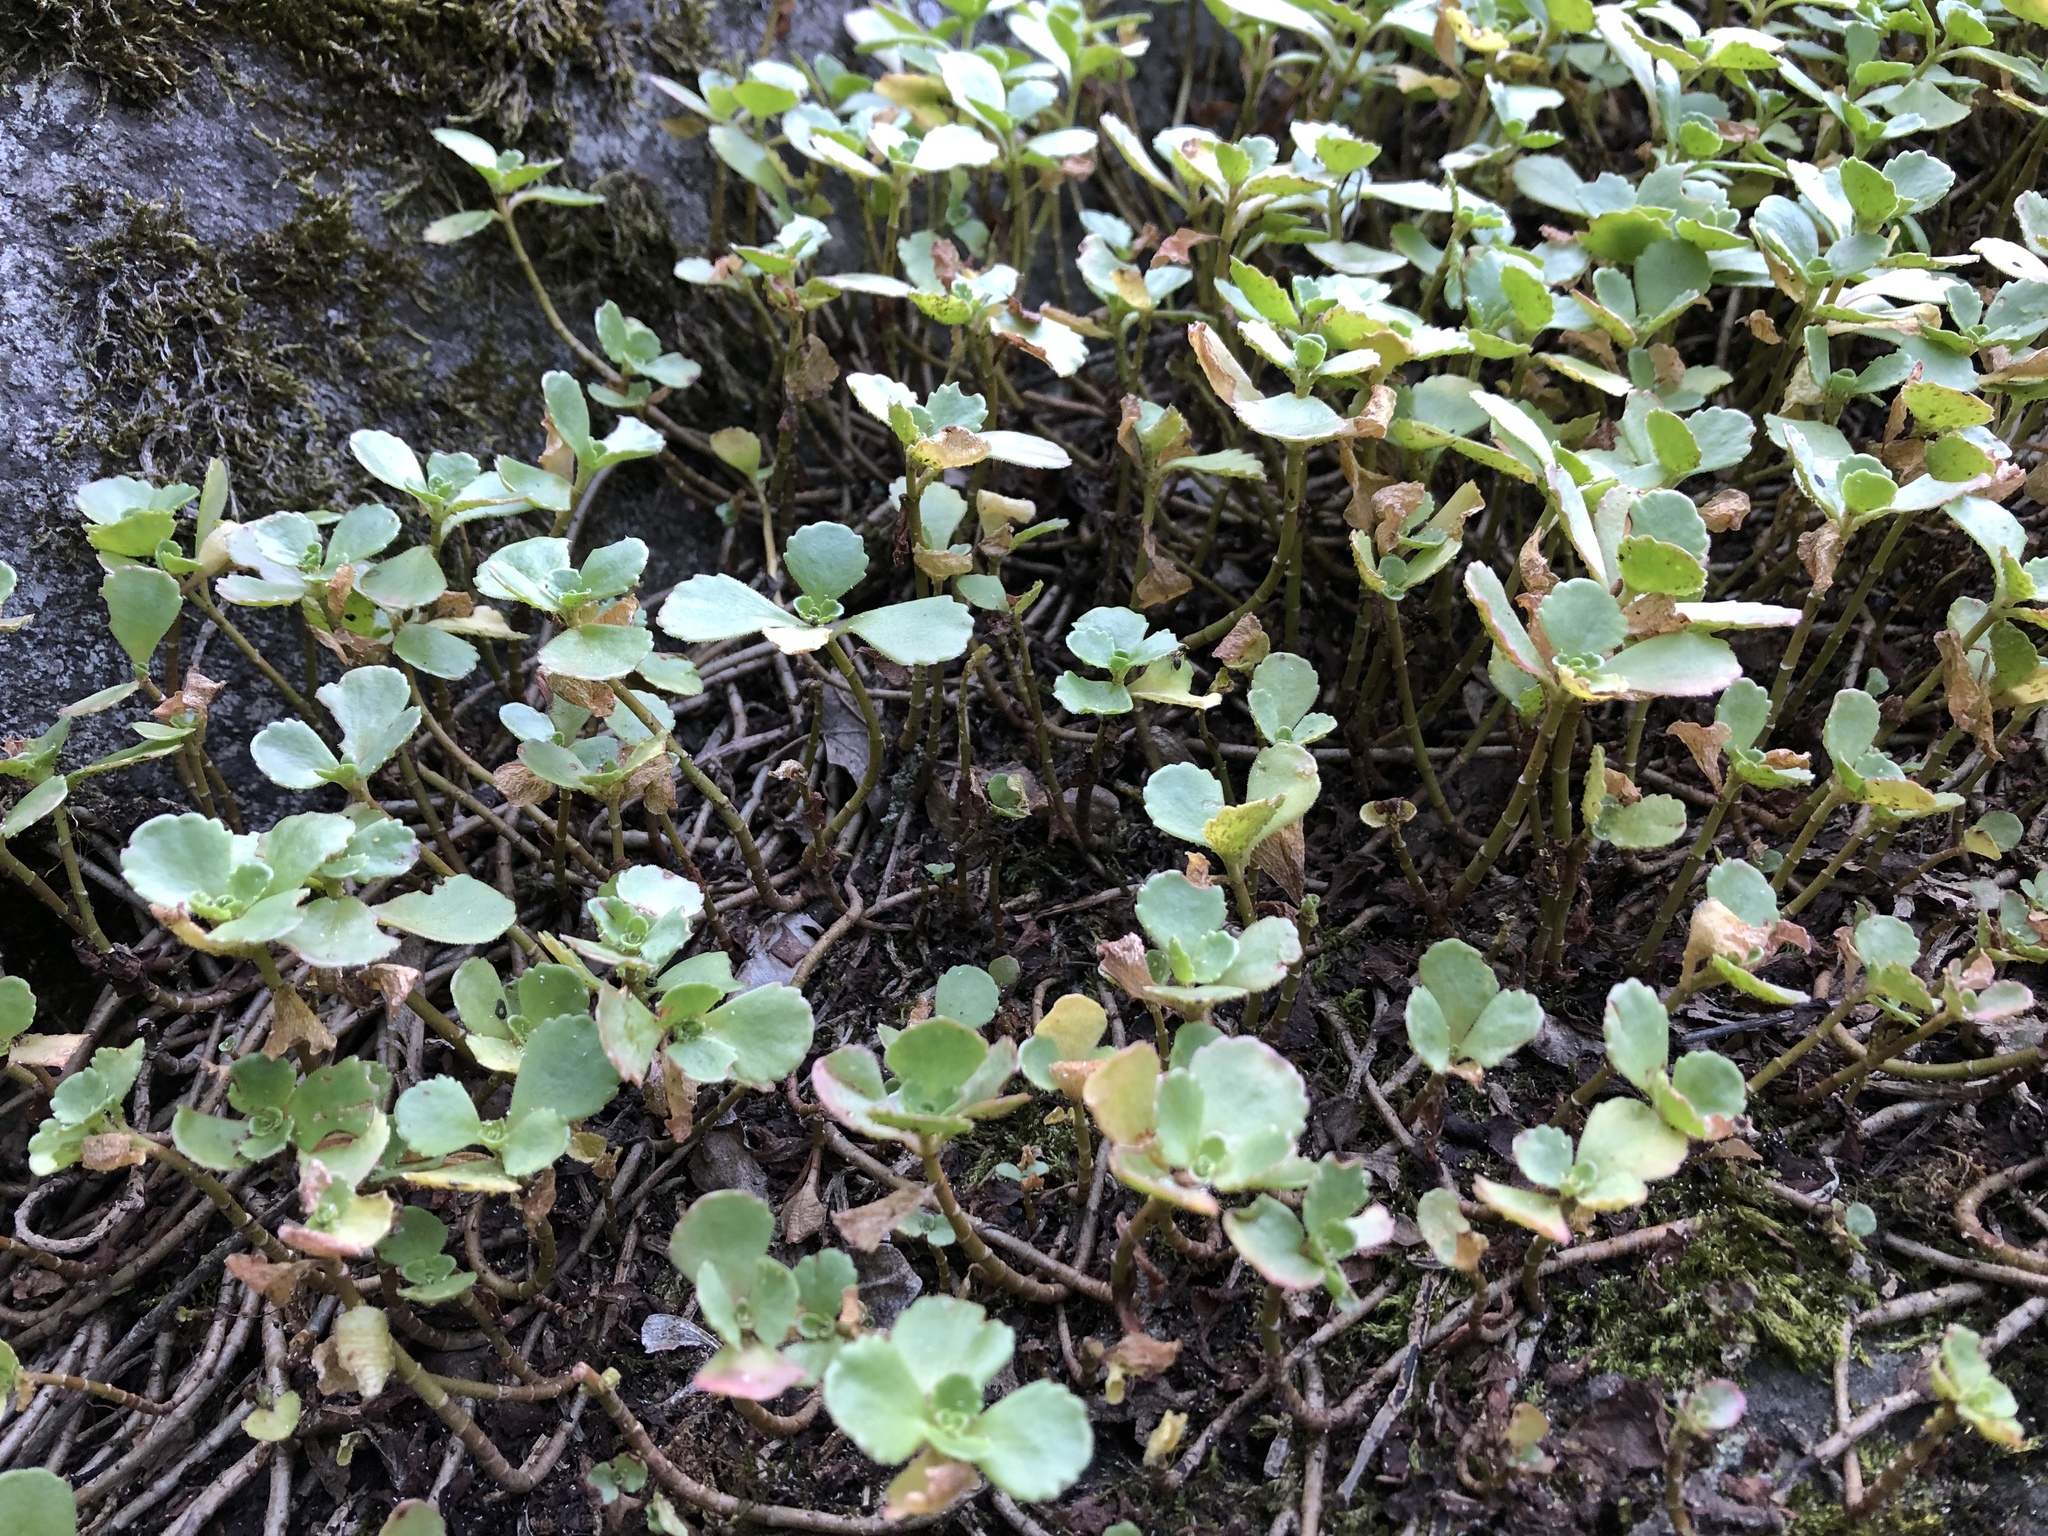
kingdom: Plantae
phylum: Tracheophyta
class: Magnoliopsida
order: Saxifragales
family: Crassulaceae
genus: Phedimus
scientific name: Phedimus spurius
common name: Caucasian stonecrop
